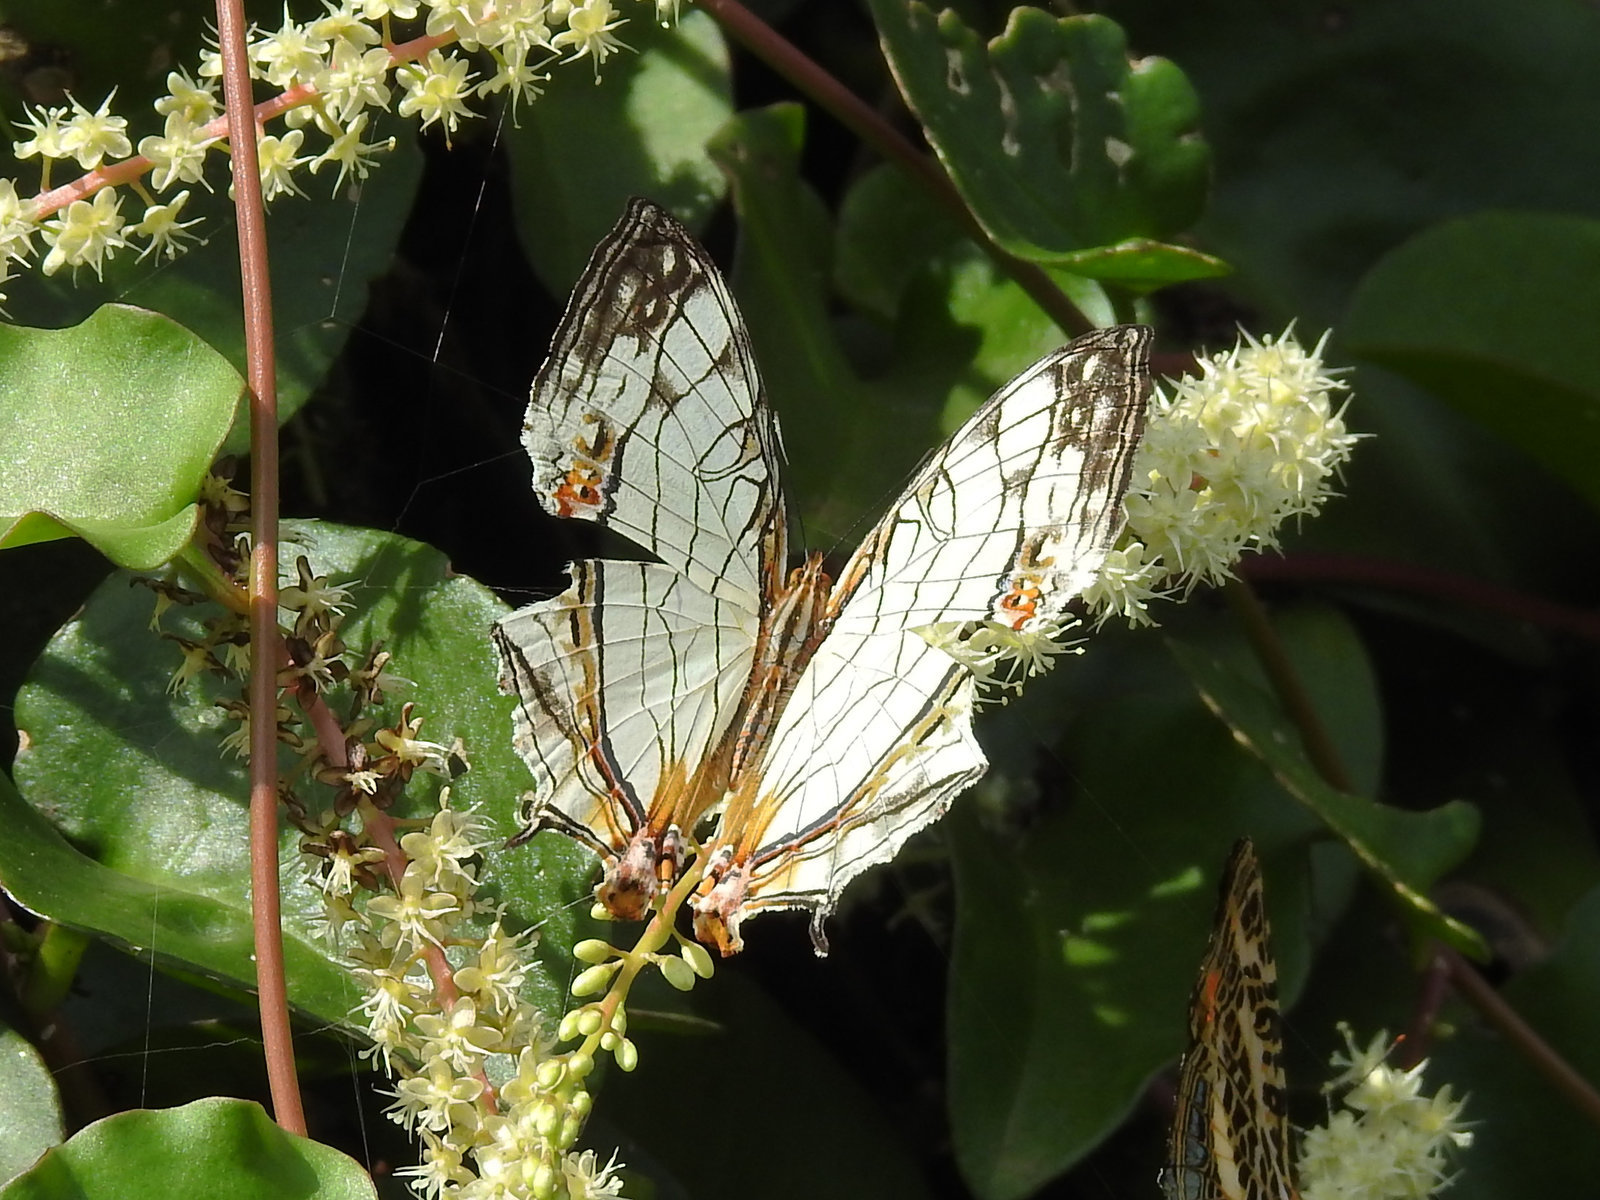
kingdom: Animalia
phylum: Arthropoda
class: Insecta
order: Lepidoptera
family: Nymphalidae
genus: Cyrestis
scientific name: Cyrestis thyodamas
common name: Common mapwing
